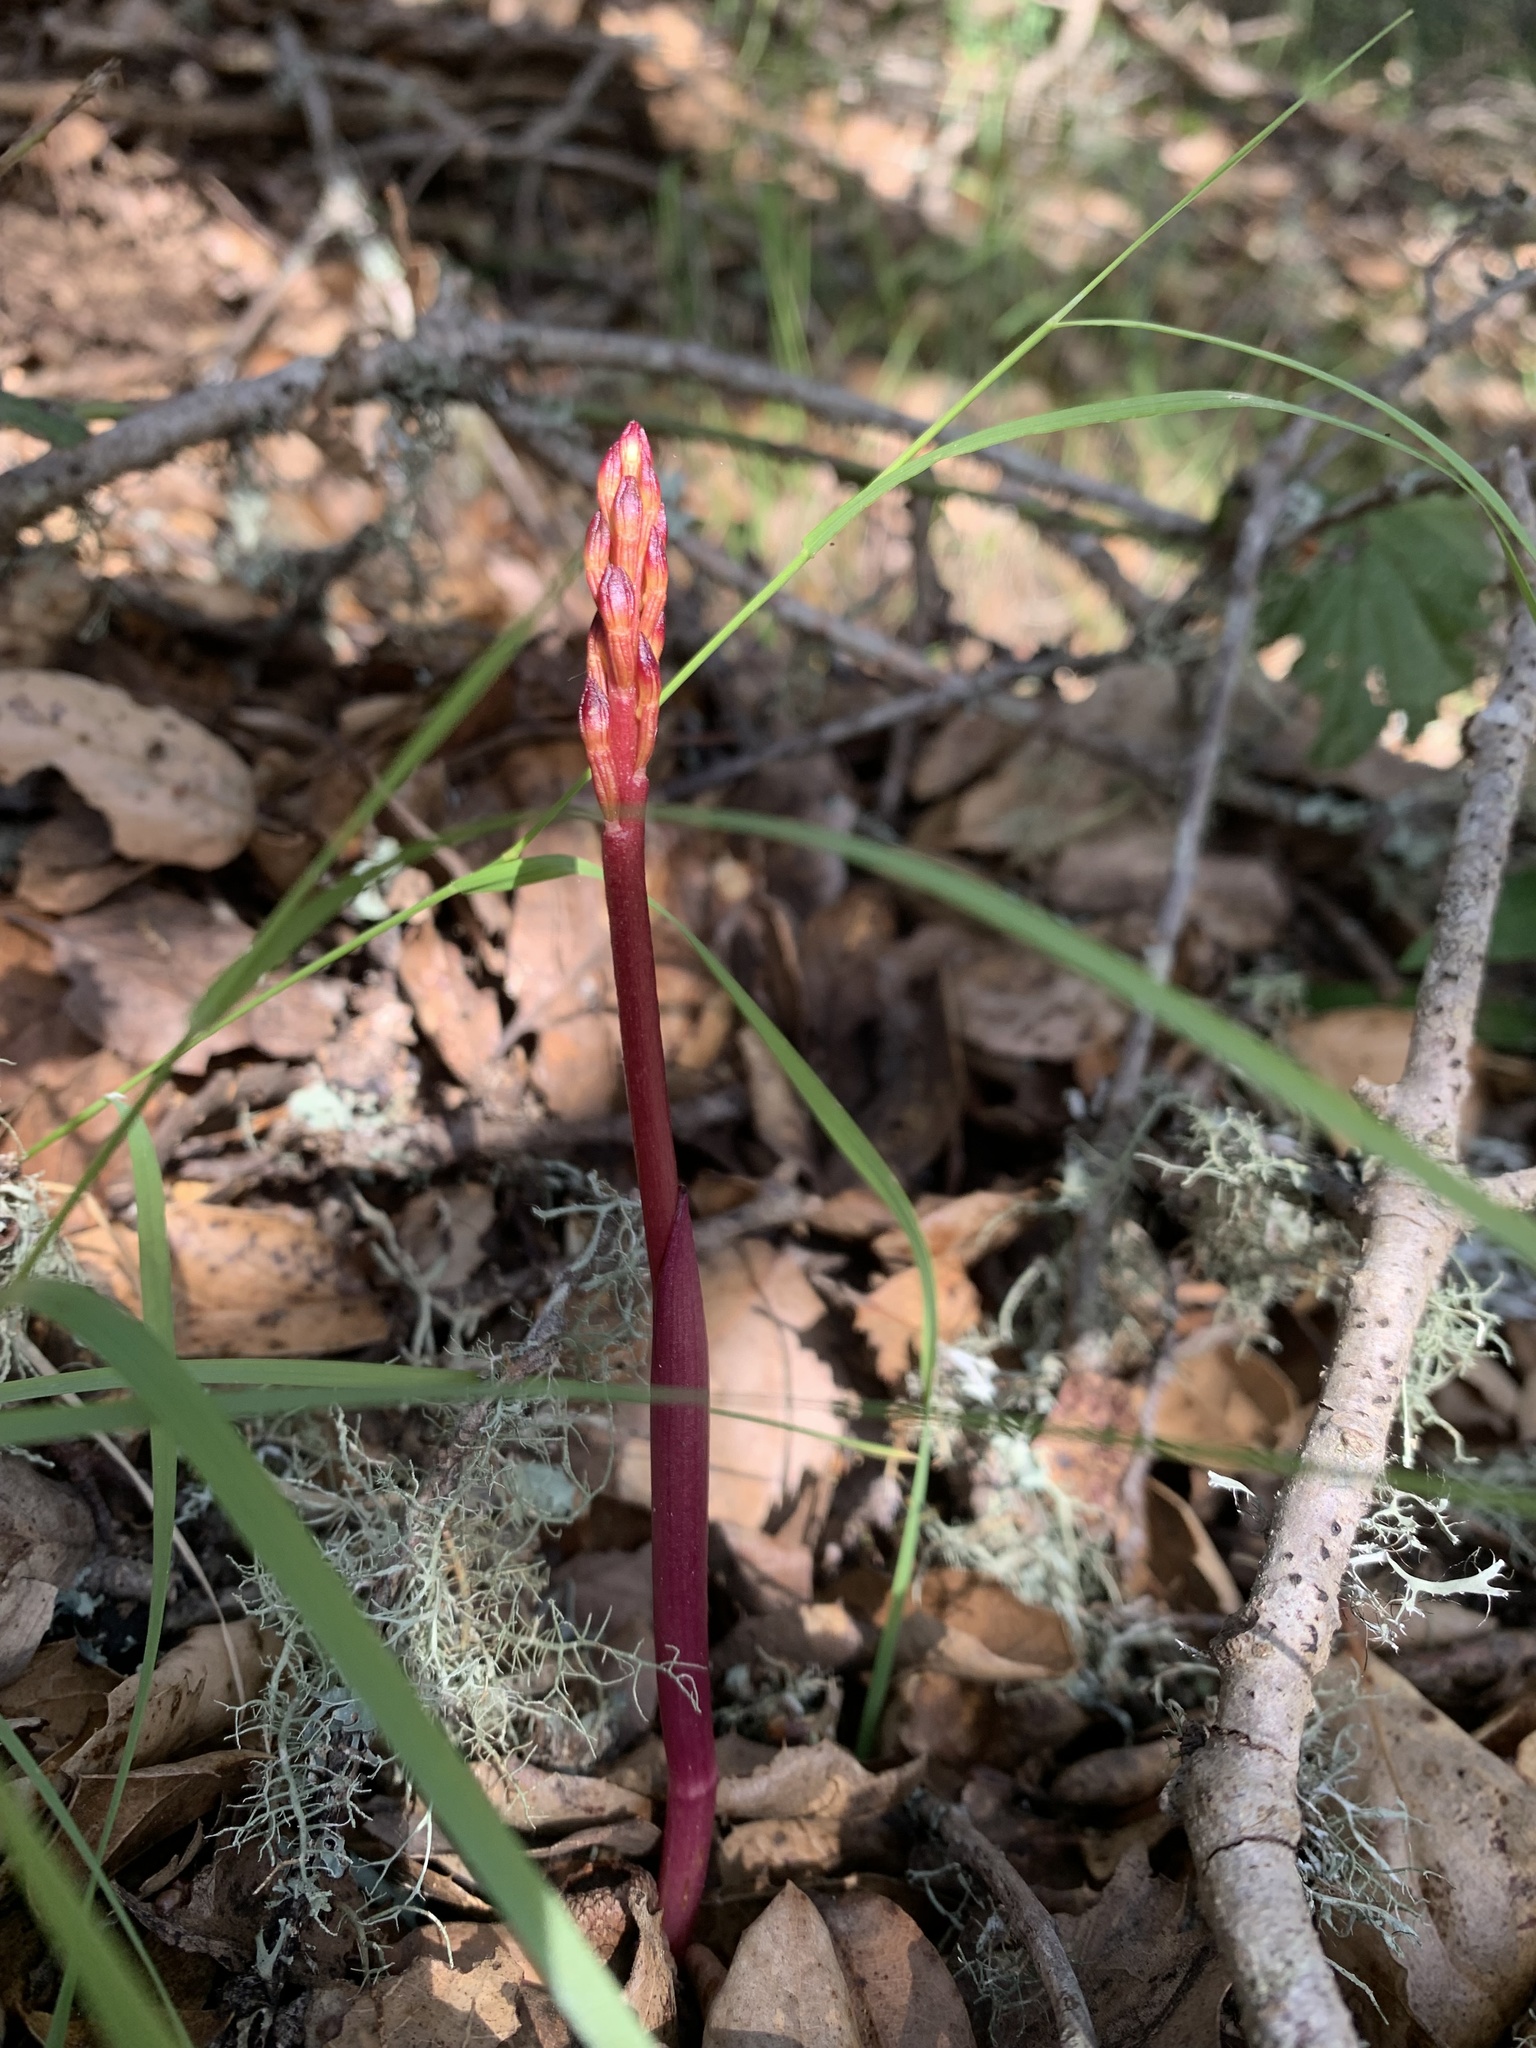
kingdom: Plantae
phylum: Tracheophyta
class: Liliopsida
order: Asparagales
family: Orchidaceae
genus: Corallorhiza
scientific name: Corallorhiza maculata
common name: Spotted coralroot
